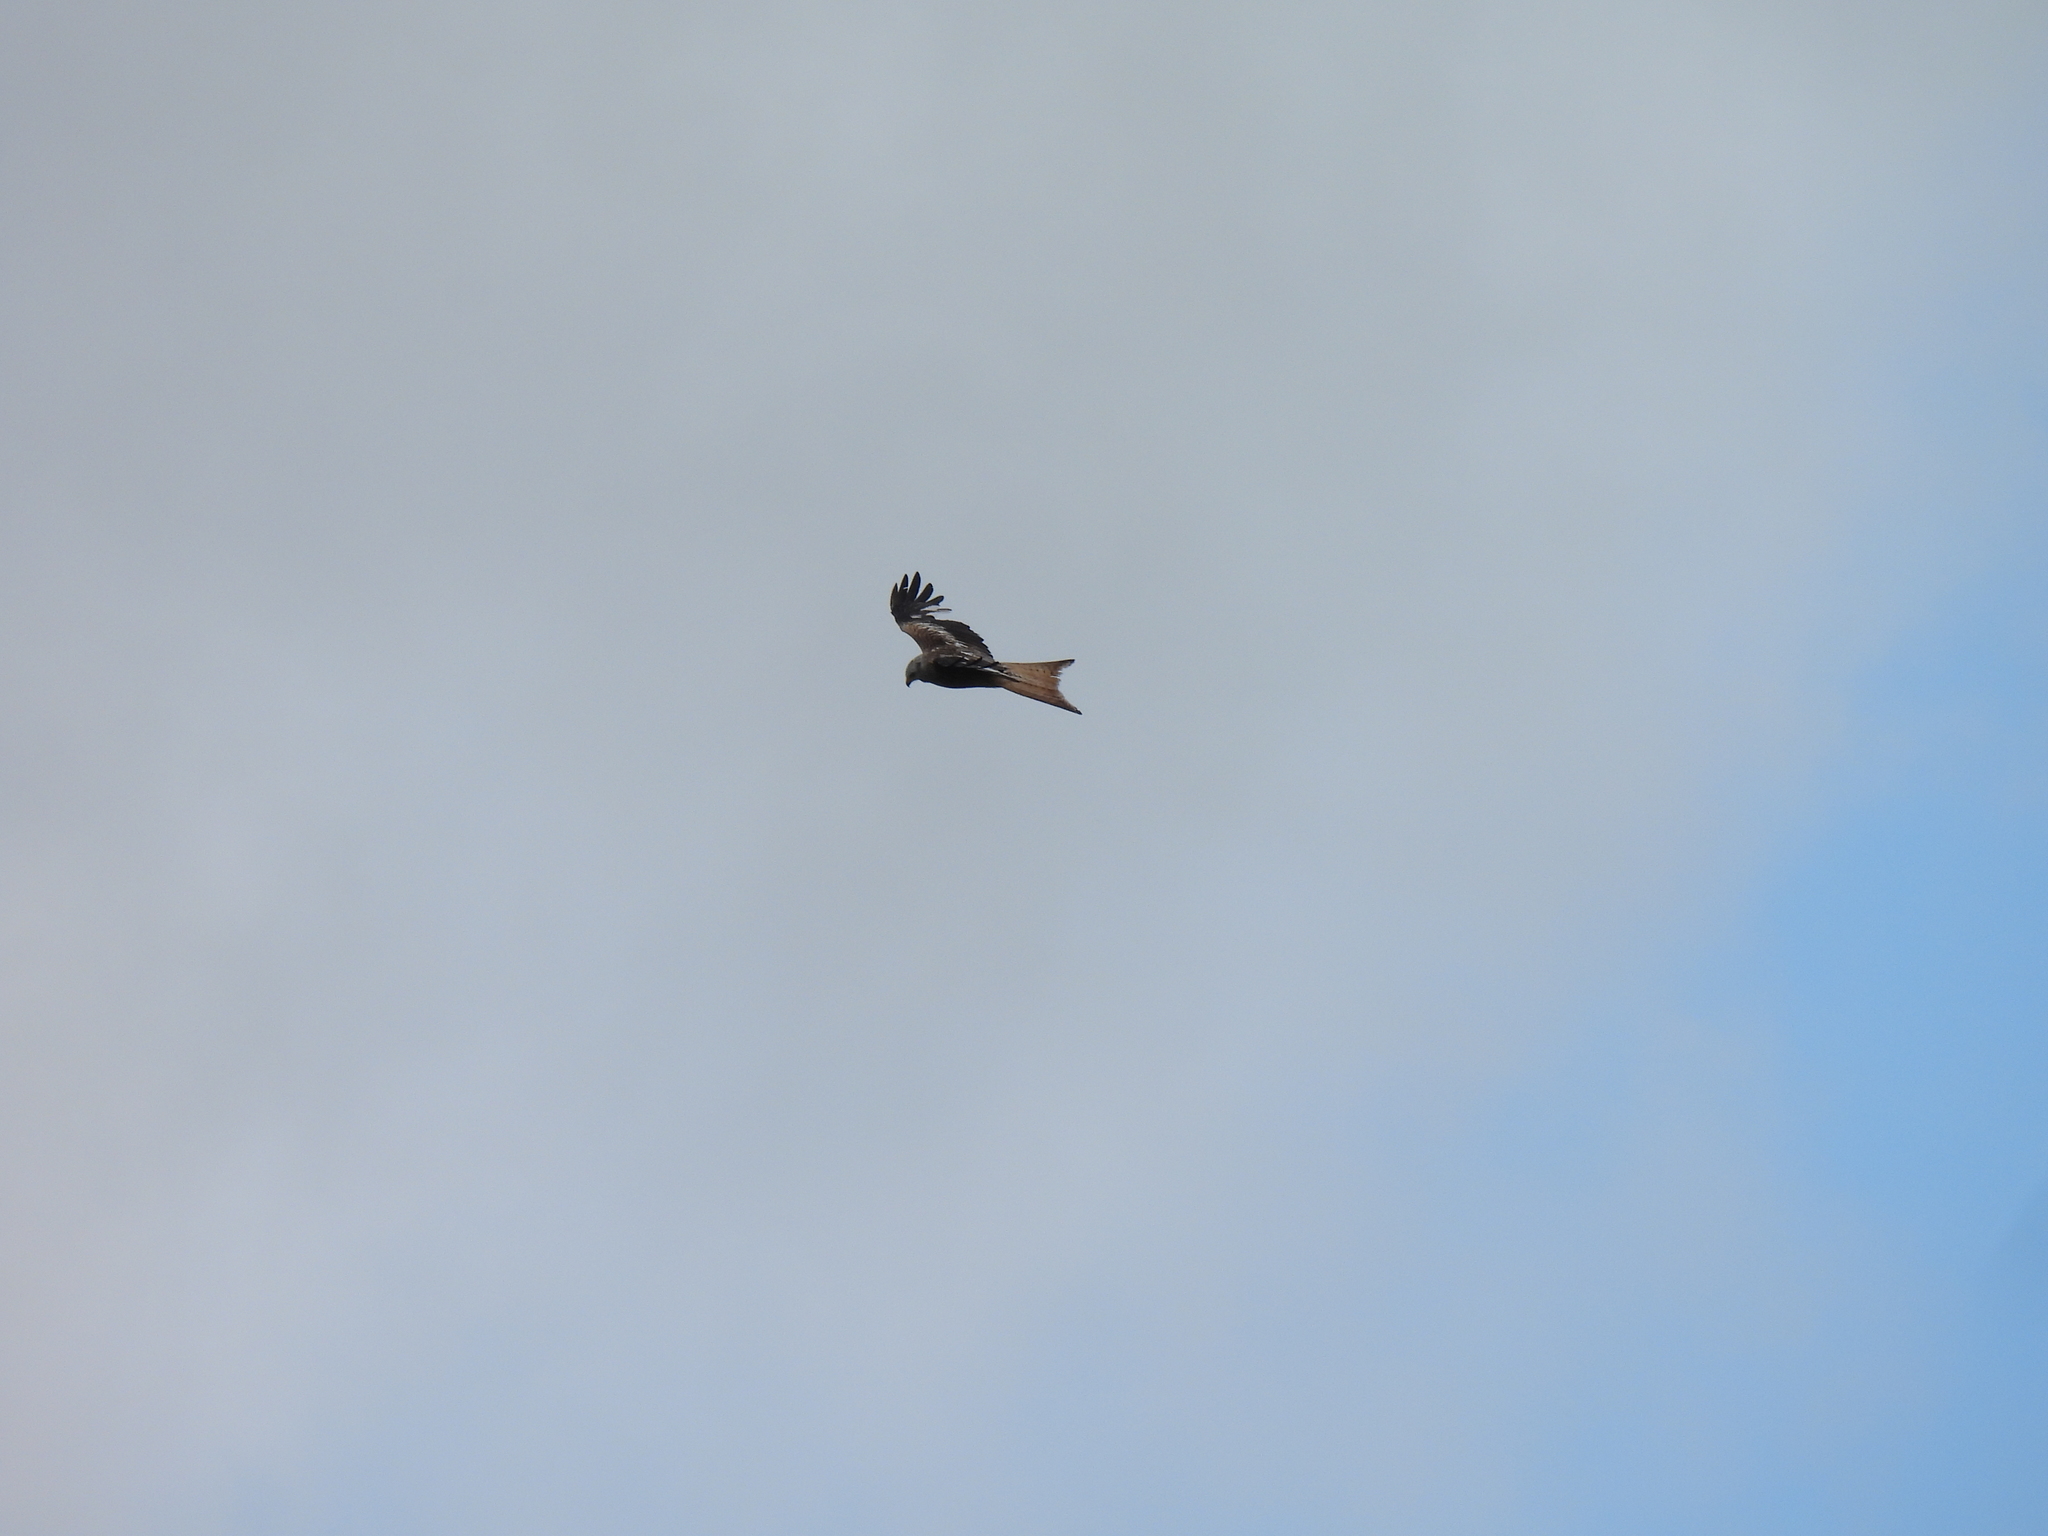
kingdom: Animalia
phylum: Chordata
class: Aves
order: Accipitriformes
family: Accipitridae
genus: Milvus
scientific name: Milvus milvus
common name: Red kite
